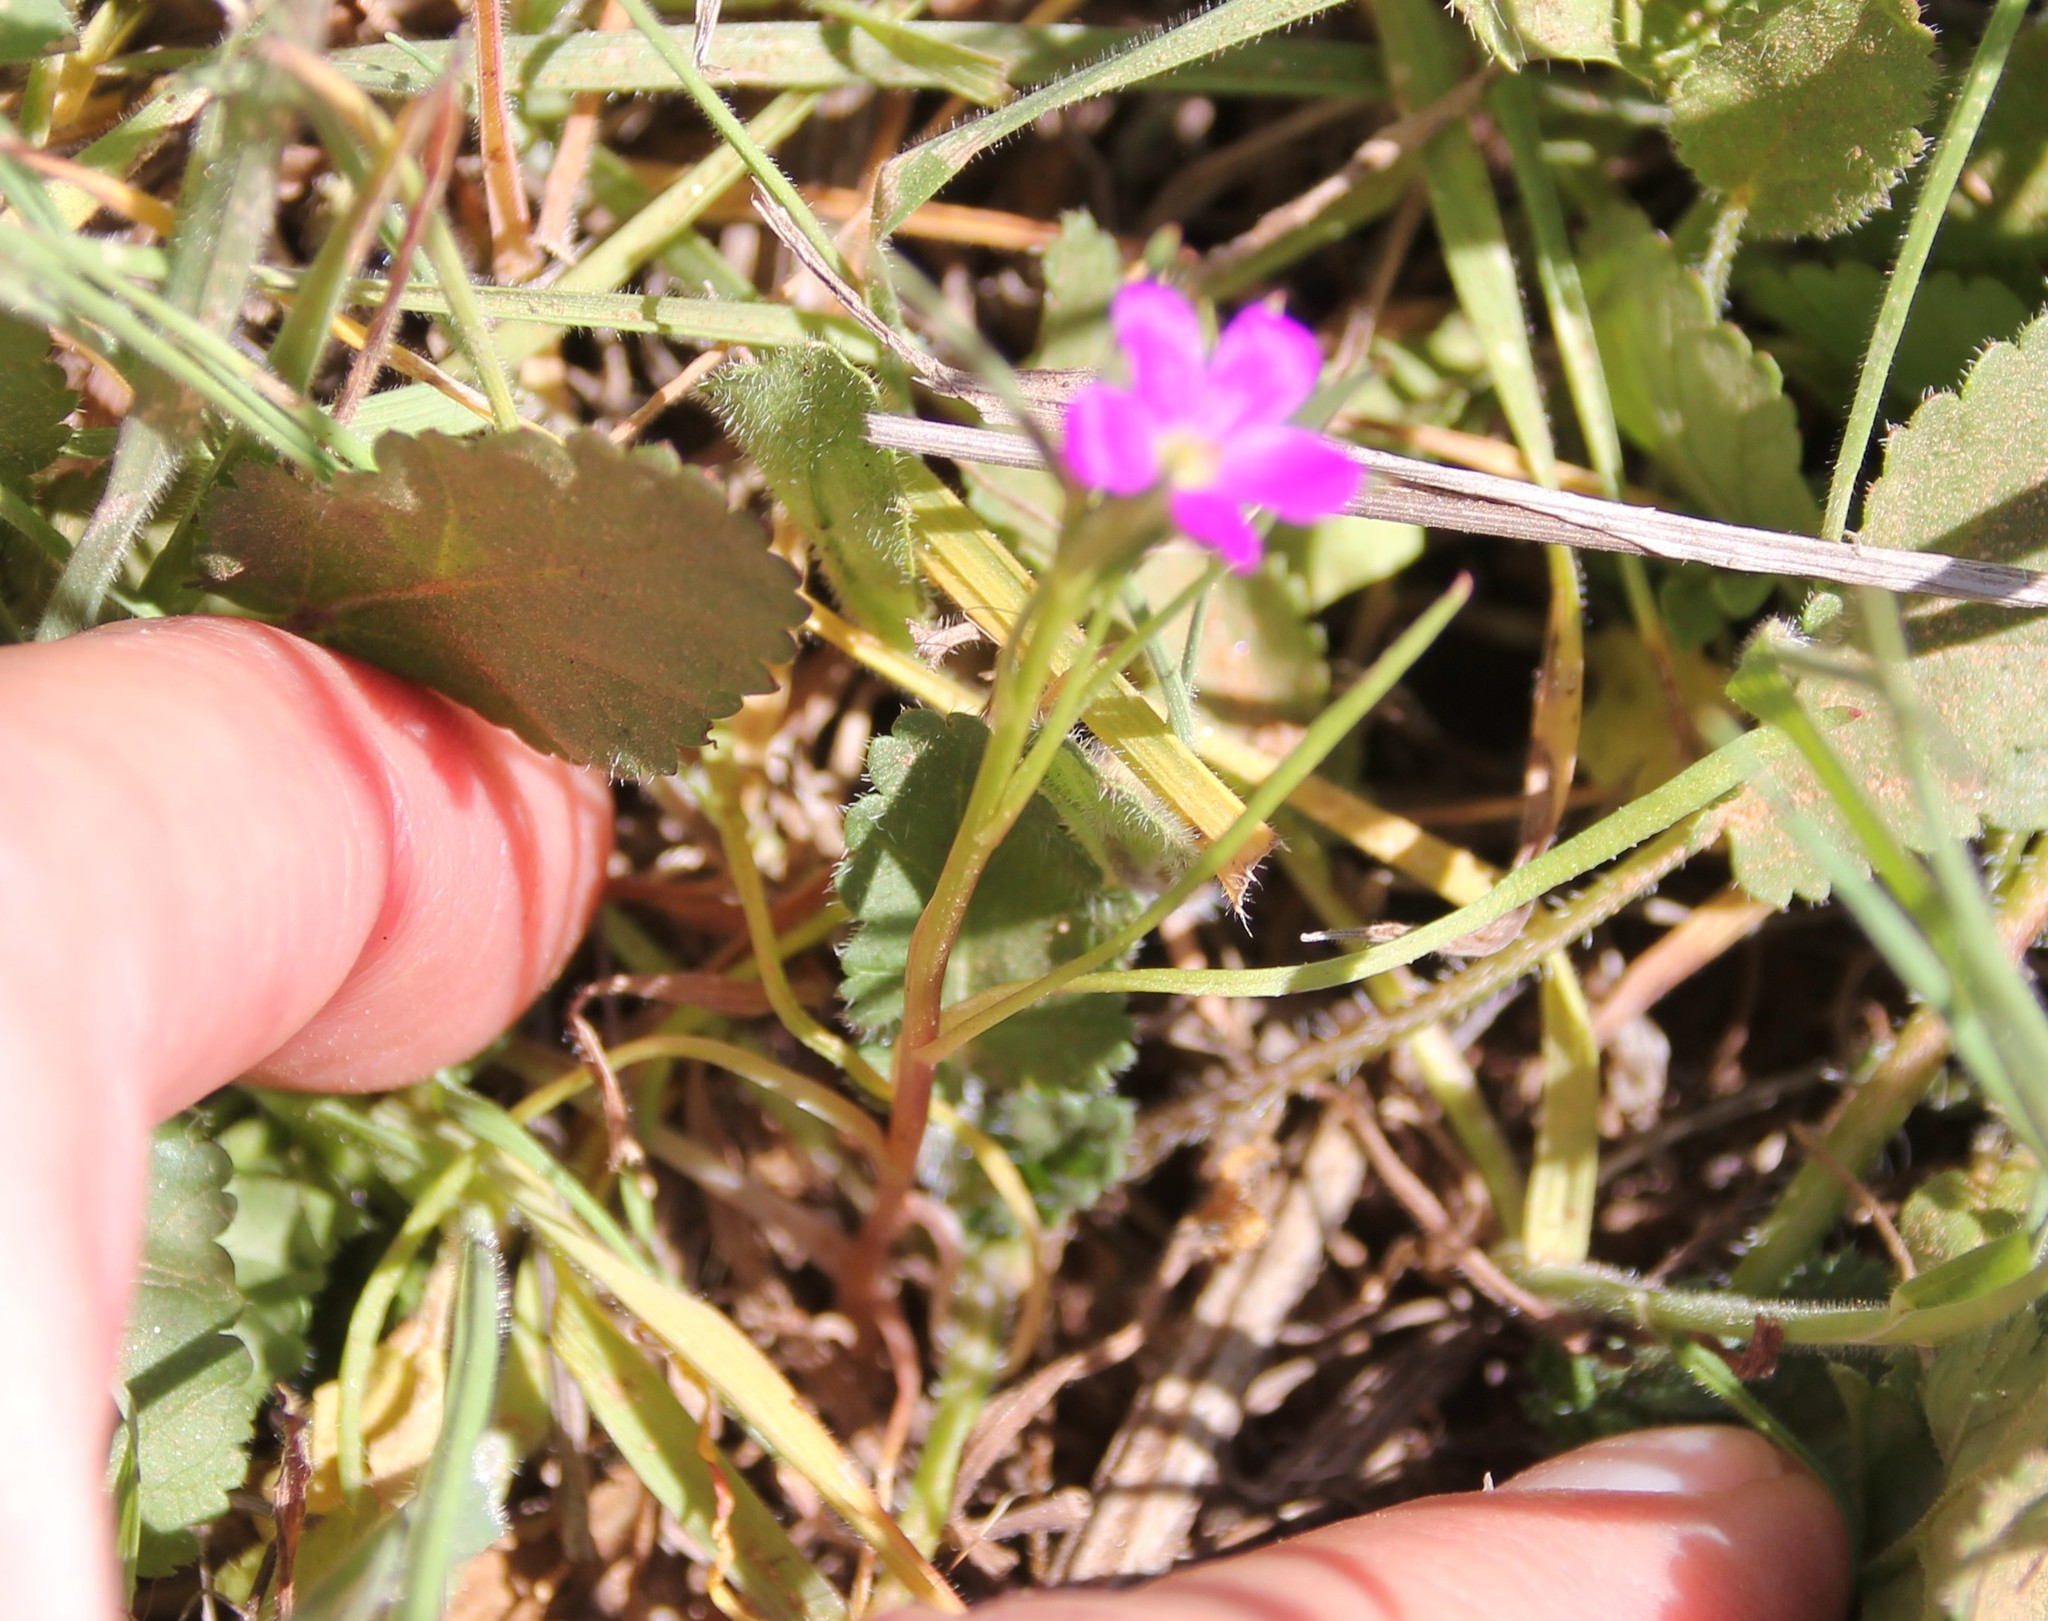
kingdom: Plantae
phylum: Tracheophyta
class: Magnoliopsida
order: Caryophyllales
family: Montiaceae
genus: Calandrinia
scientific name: Calandrinia menziesii
